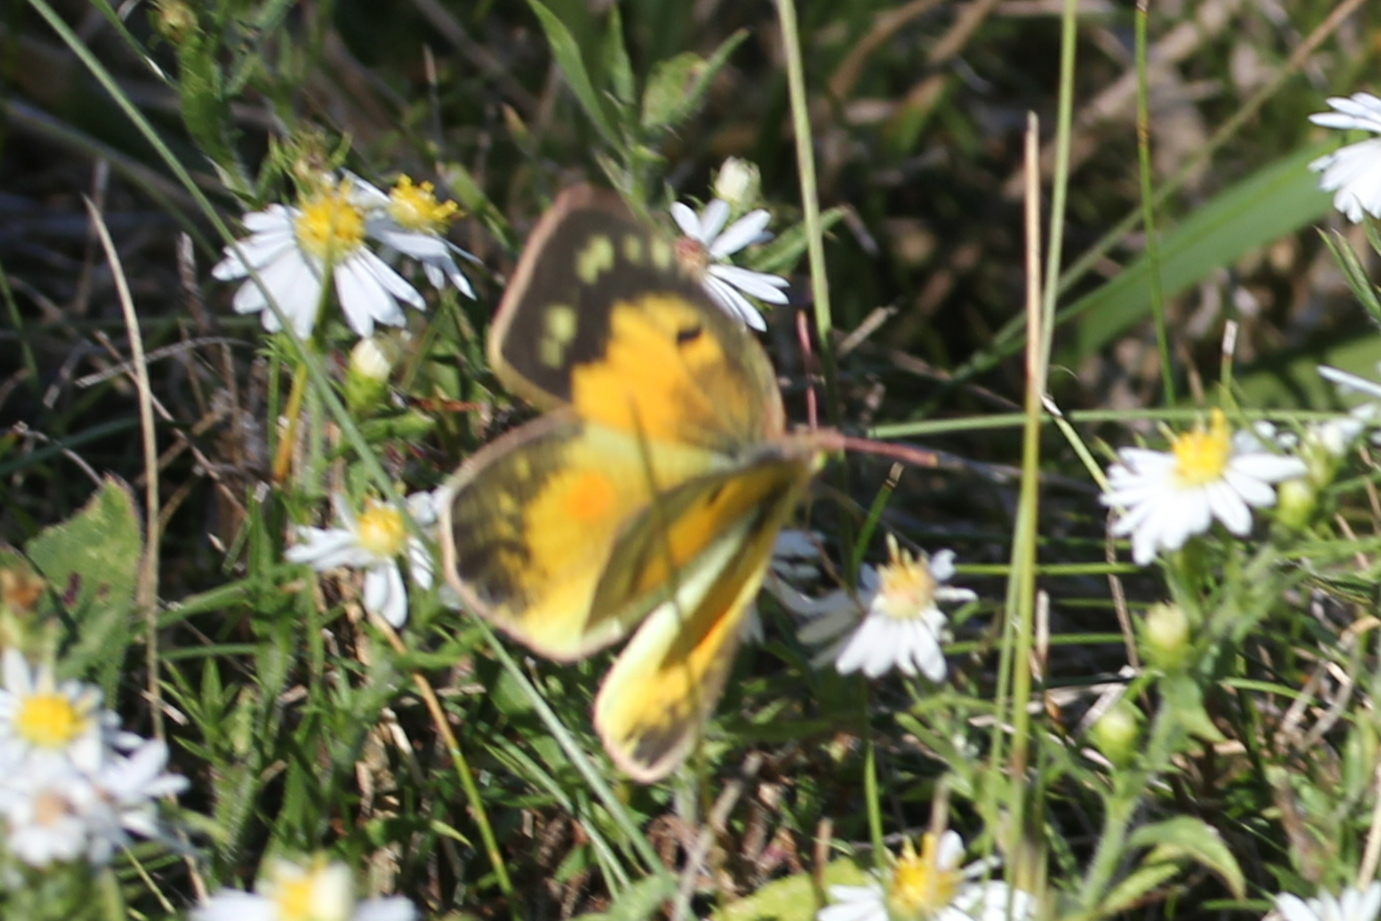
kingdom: Animalia
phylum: Arthropoda
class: Insecta
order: Lepidoptera
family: Pieridae
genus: Colias
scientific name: Colias eurytheme
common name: Alfalfa butterfly
